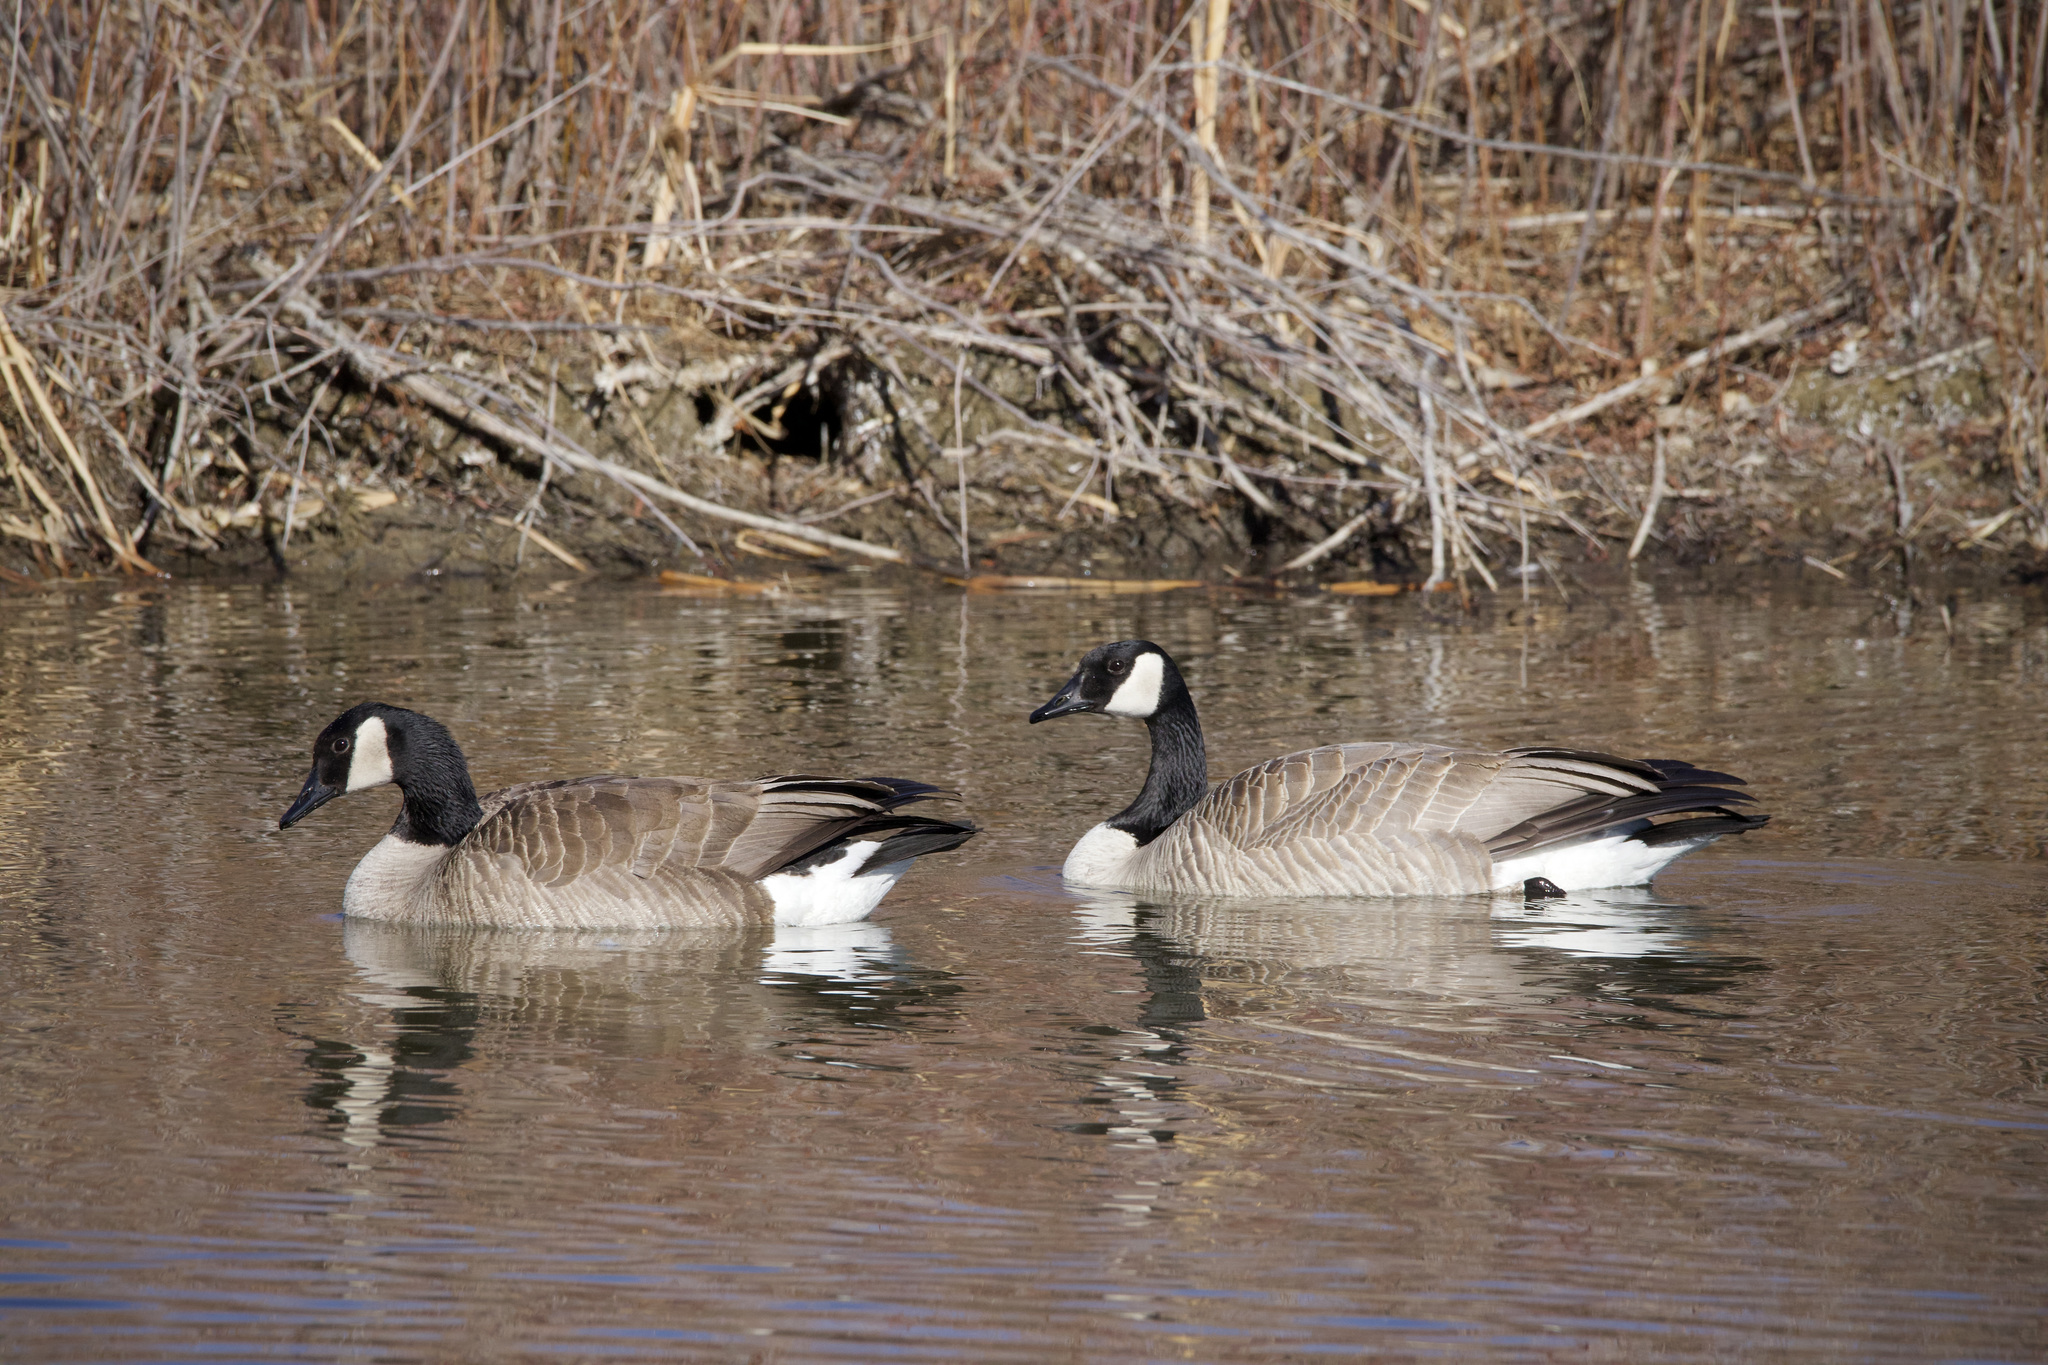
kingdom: Animalia
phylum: Chordata
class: Aves
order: Anseriformes
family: Anatidae
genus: Branta
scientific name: Branta canadensis
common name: Canada goose
